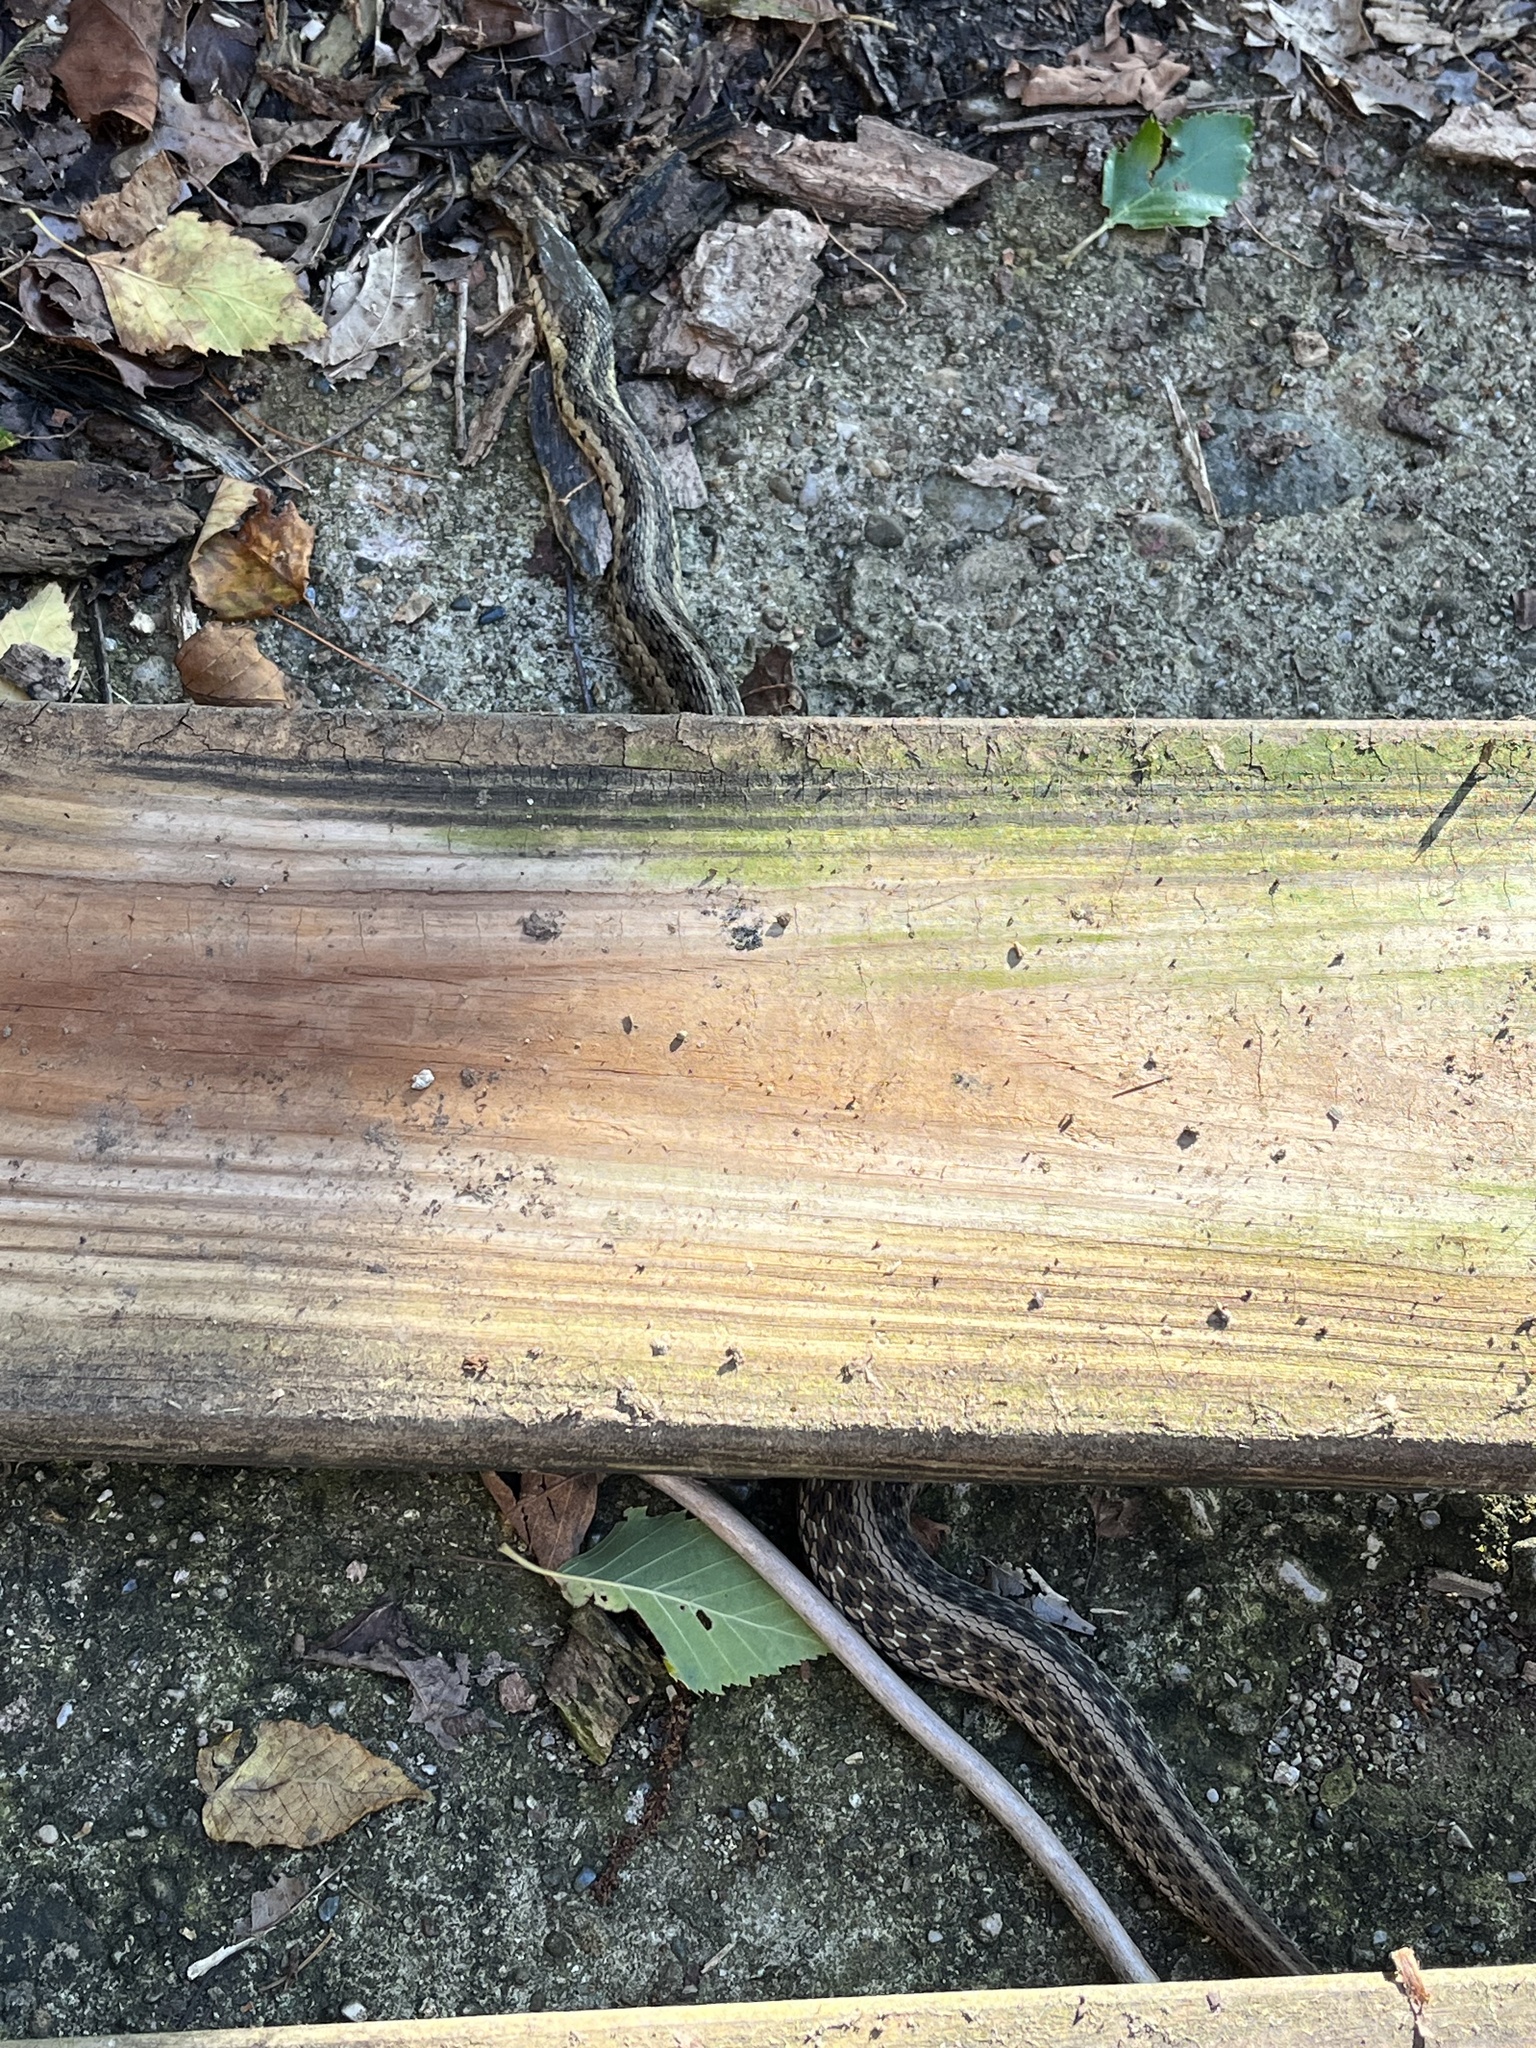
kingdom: Animalia
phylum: Chordata
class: Squamata
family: Colubridae
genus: Thamnophis
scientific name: Thamnophis sirtalis
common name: Common garter snake
